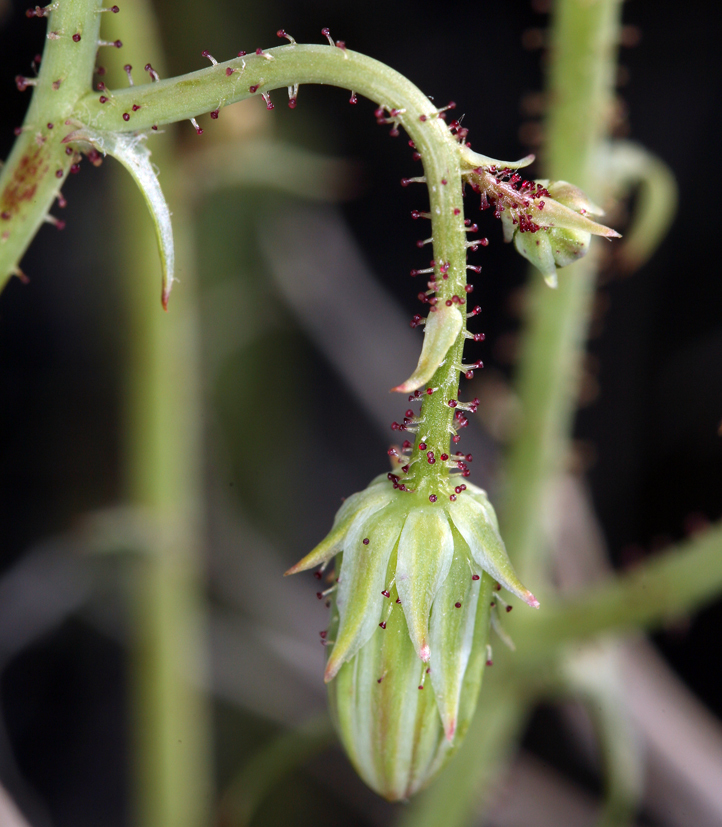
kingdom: Plantae
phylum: Tracheophyta
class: Magnoliopsida
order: Asterales
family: Asteraceae
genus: Calycoseris
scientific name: Calycoseris parryi
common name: Yellow tackstem
